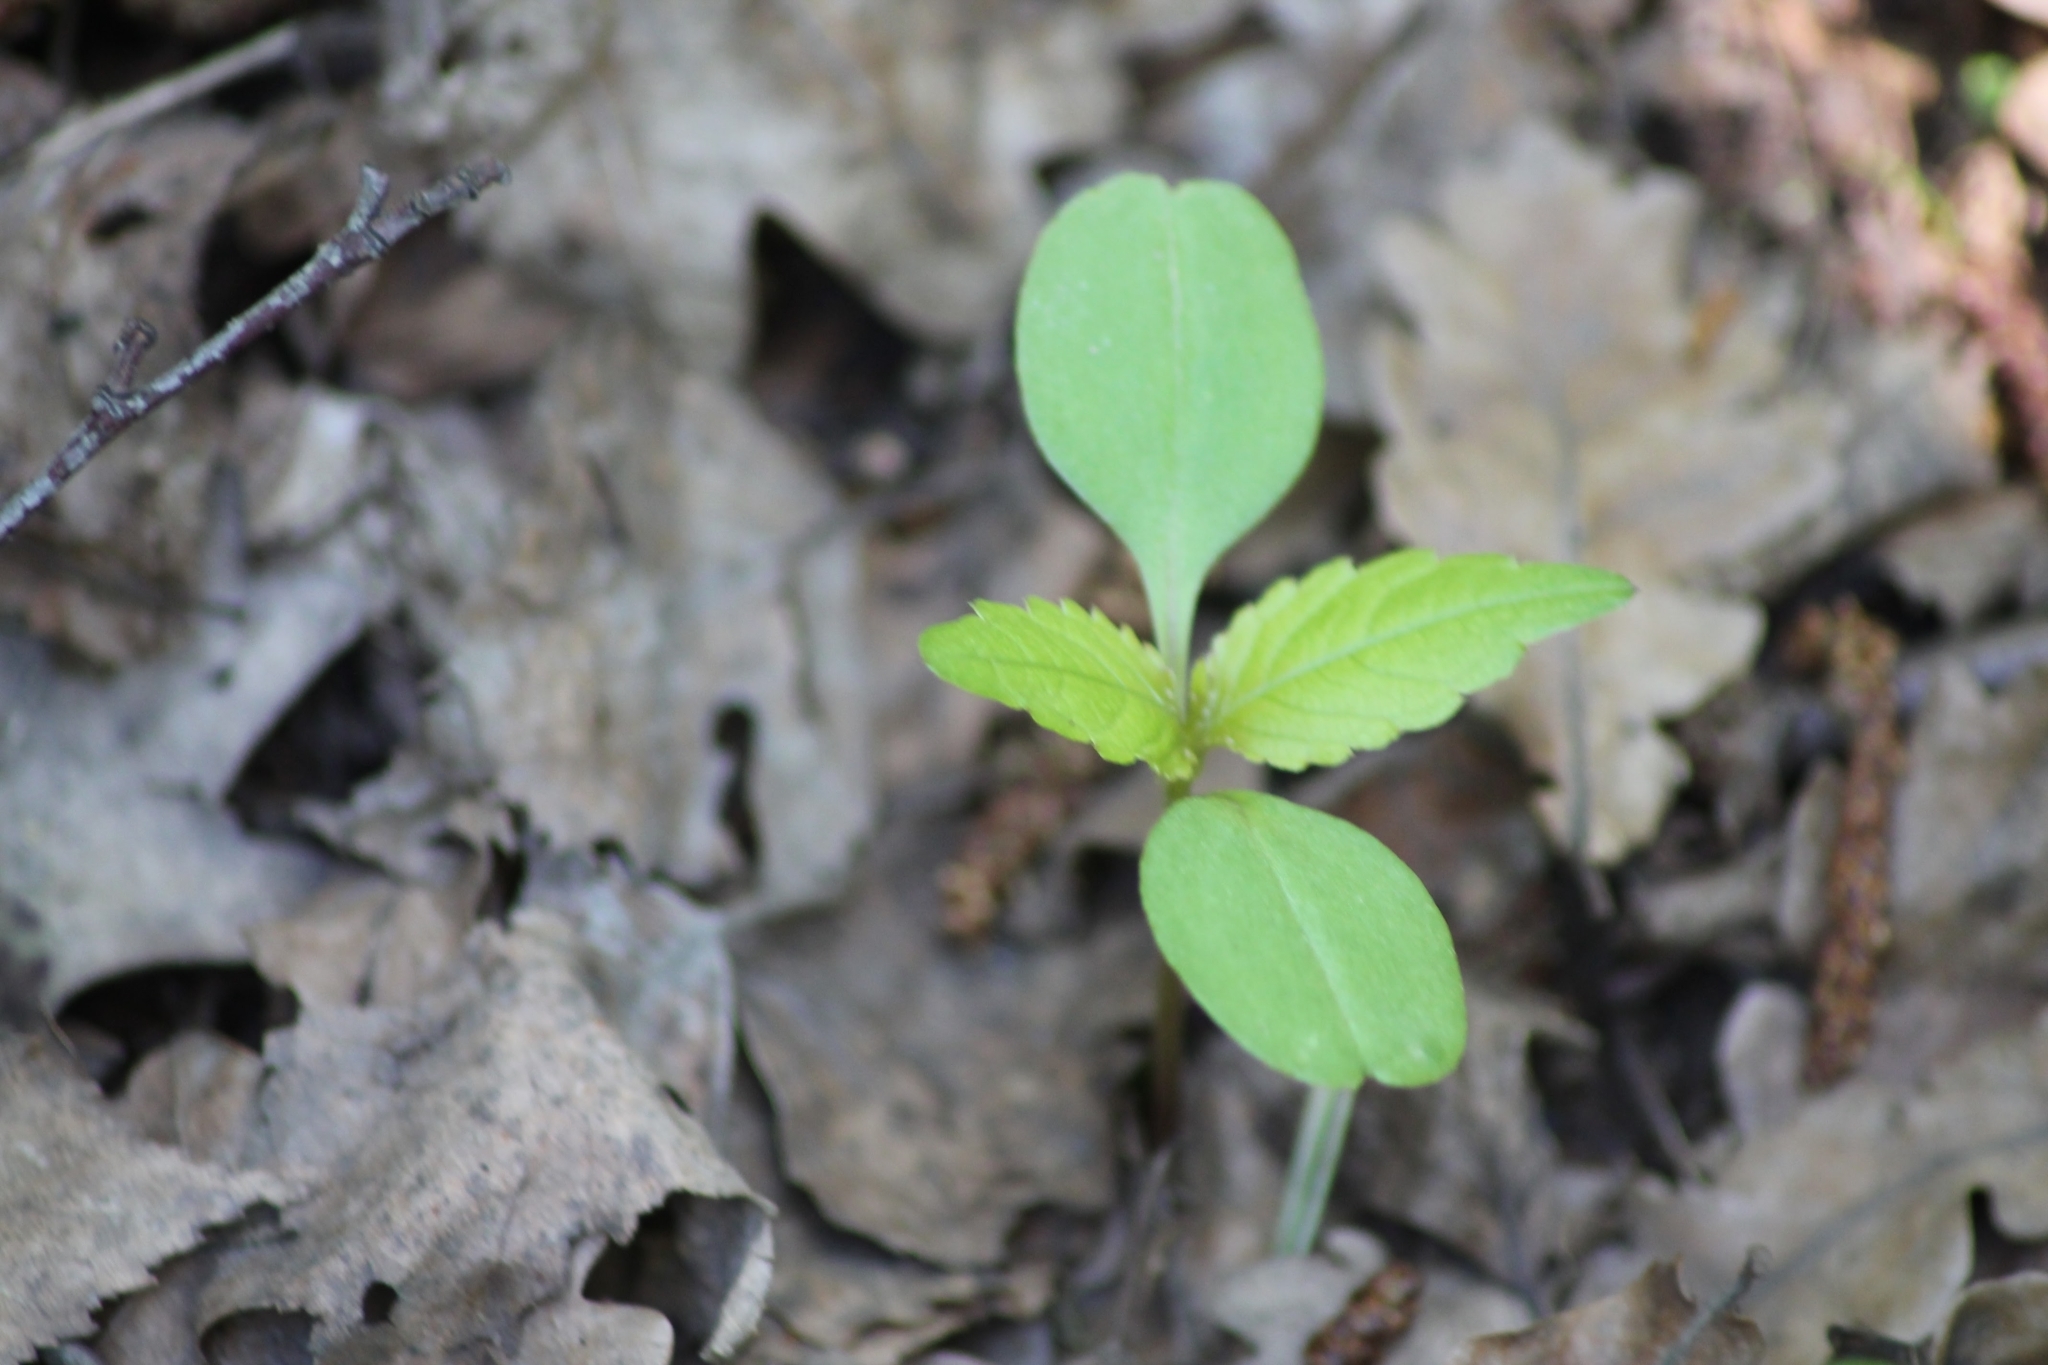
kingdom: Plantae
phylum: Tracheophyta
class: Magnoliopsida
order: Ericales
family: Balsaminaceae
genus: Impatiens
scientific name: Impatiens parviflora
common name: Small balsam
